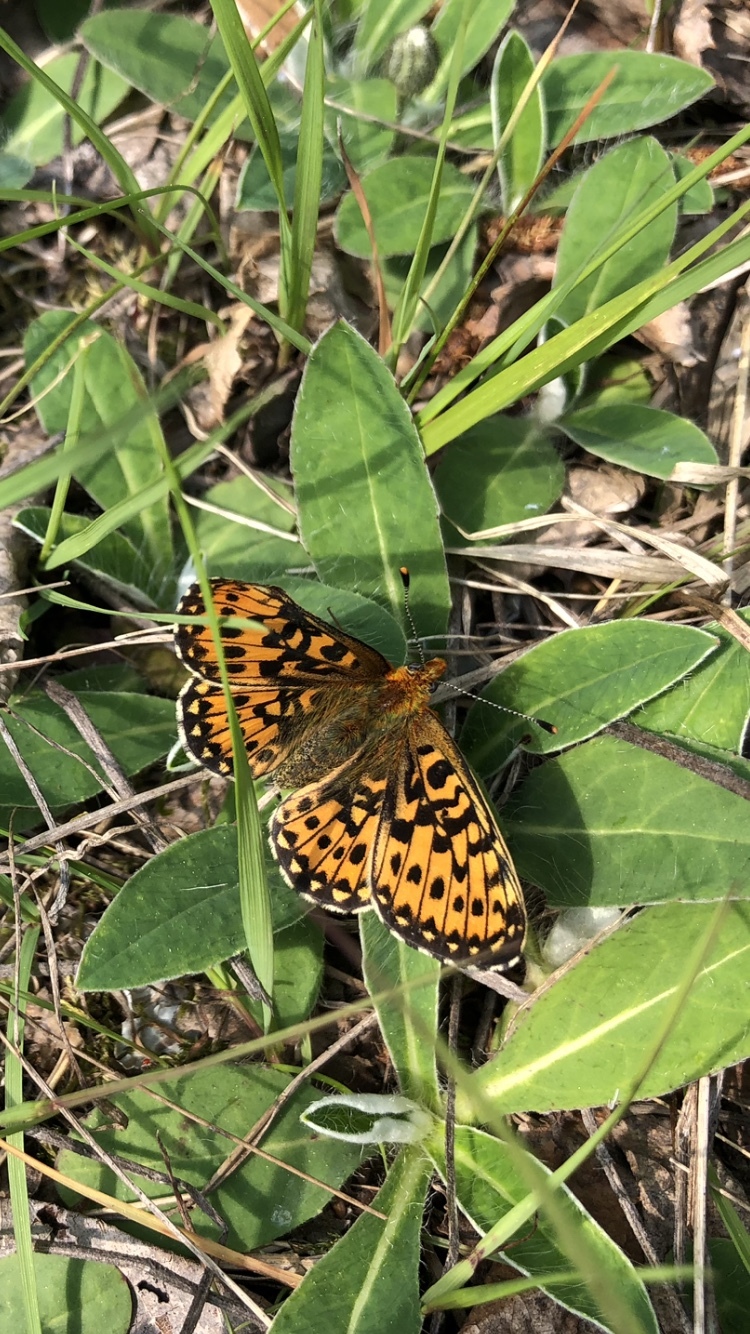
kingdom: Animalia
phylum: Arthropoda
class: Insecta
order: Lepidoptera
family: Nymphalidae
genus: Clossiana
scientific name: Clossiana euphrosyne
